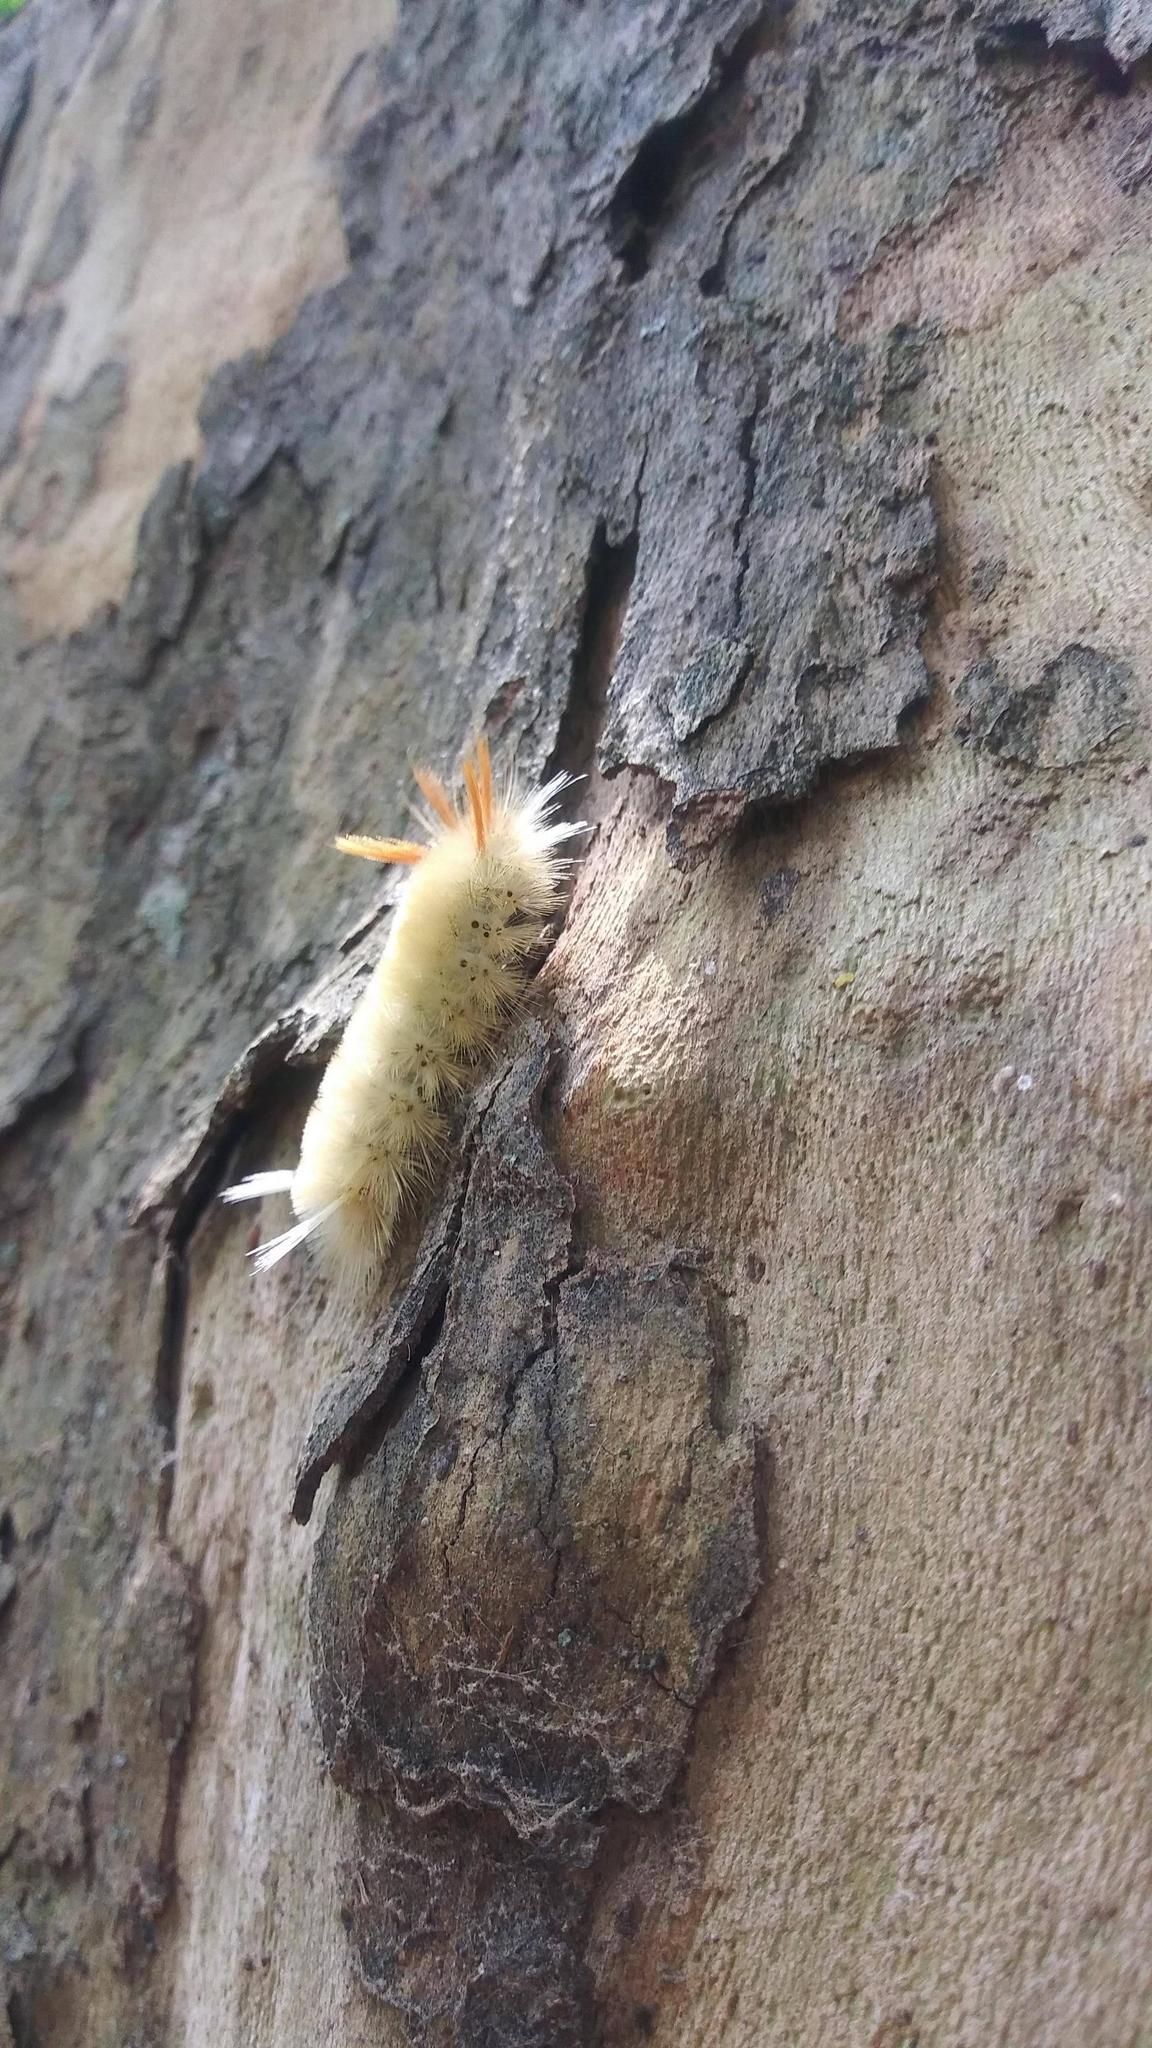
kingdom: Animalia
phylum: Arthropoda
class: Insecta
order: Lepidoptera
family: Erebidae
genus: Halysidota
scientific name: Halysidota harrisii
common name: Sycamore tussock moth
